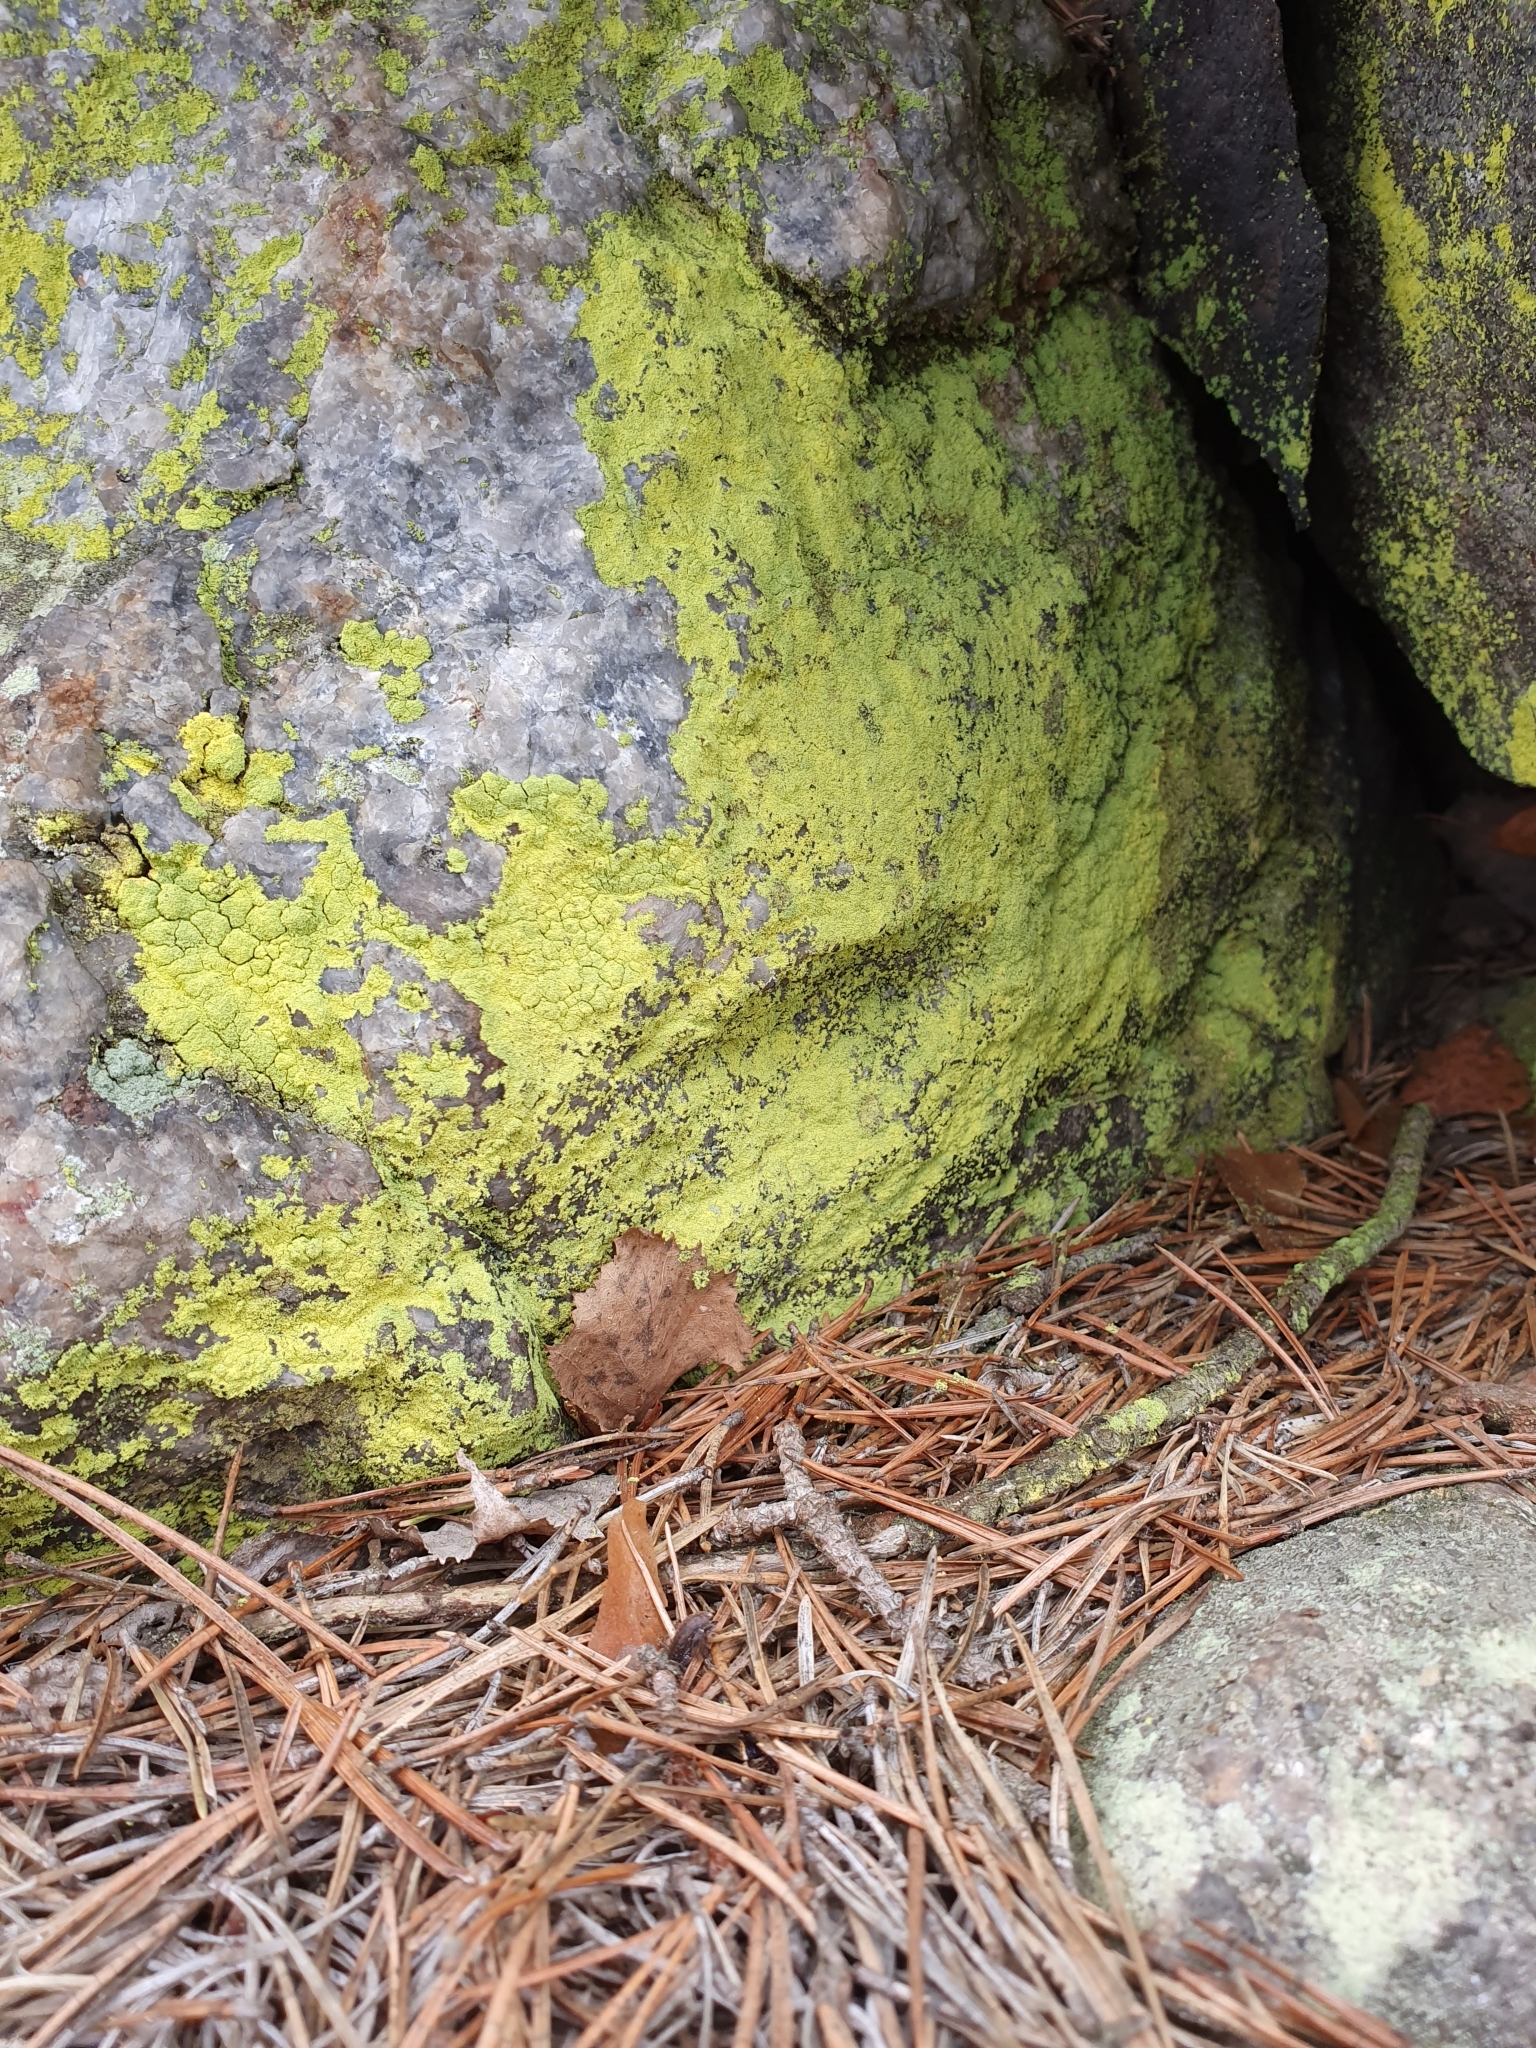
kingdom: Fungi
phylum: Ascomycota
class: Arthoniomycetes
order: Arthoniales
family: Chrysotrichaceae
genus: Chrysothrix
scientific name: Chrysothrix chlorina
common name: Chlorine dust lichen
